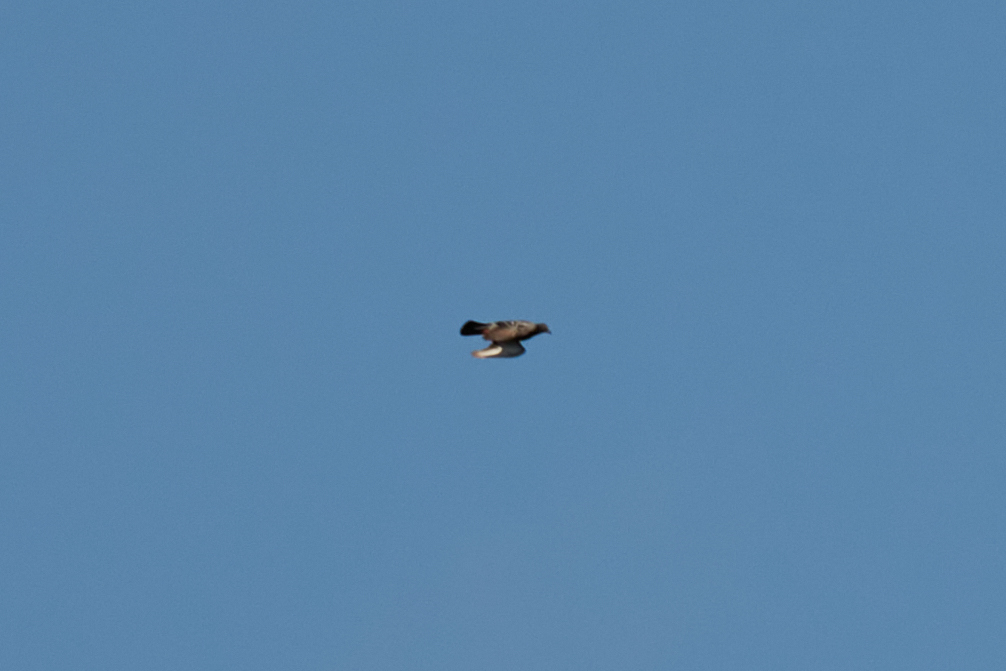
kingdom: Animalia
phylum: Chordata
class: Aves
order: Columbiformes
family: Columbidae
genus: Columba
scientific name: Columba livia
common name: Rock pigeon
